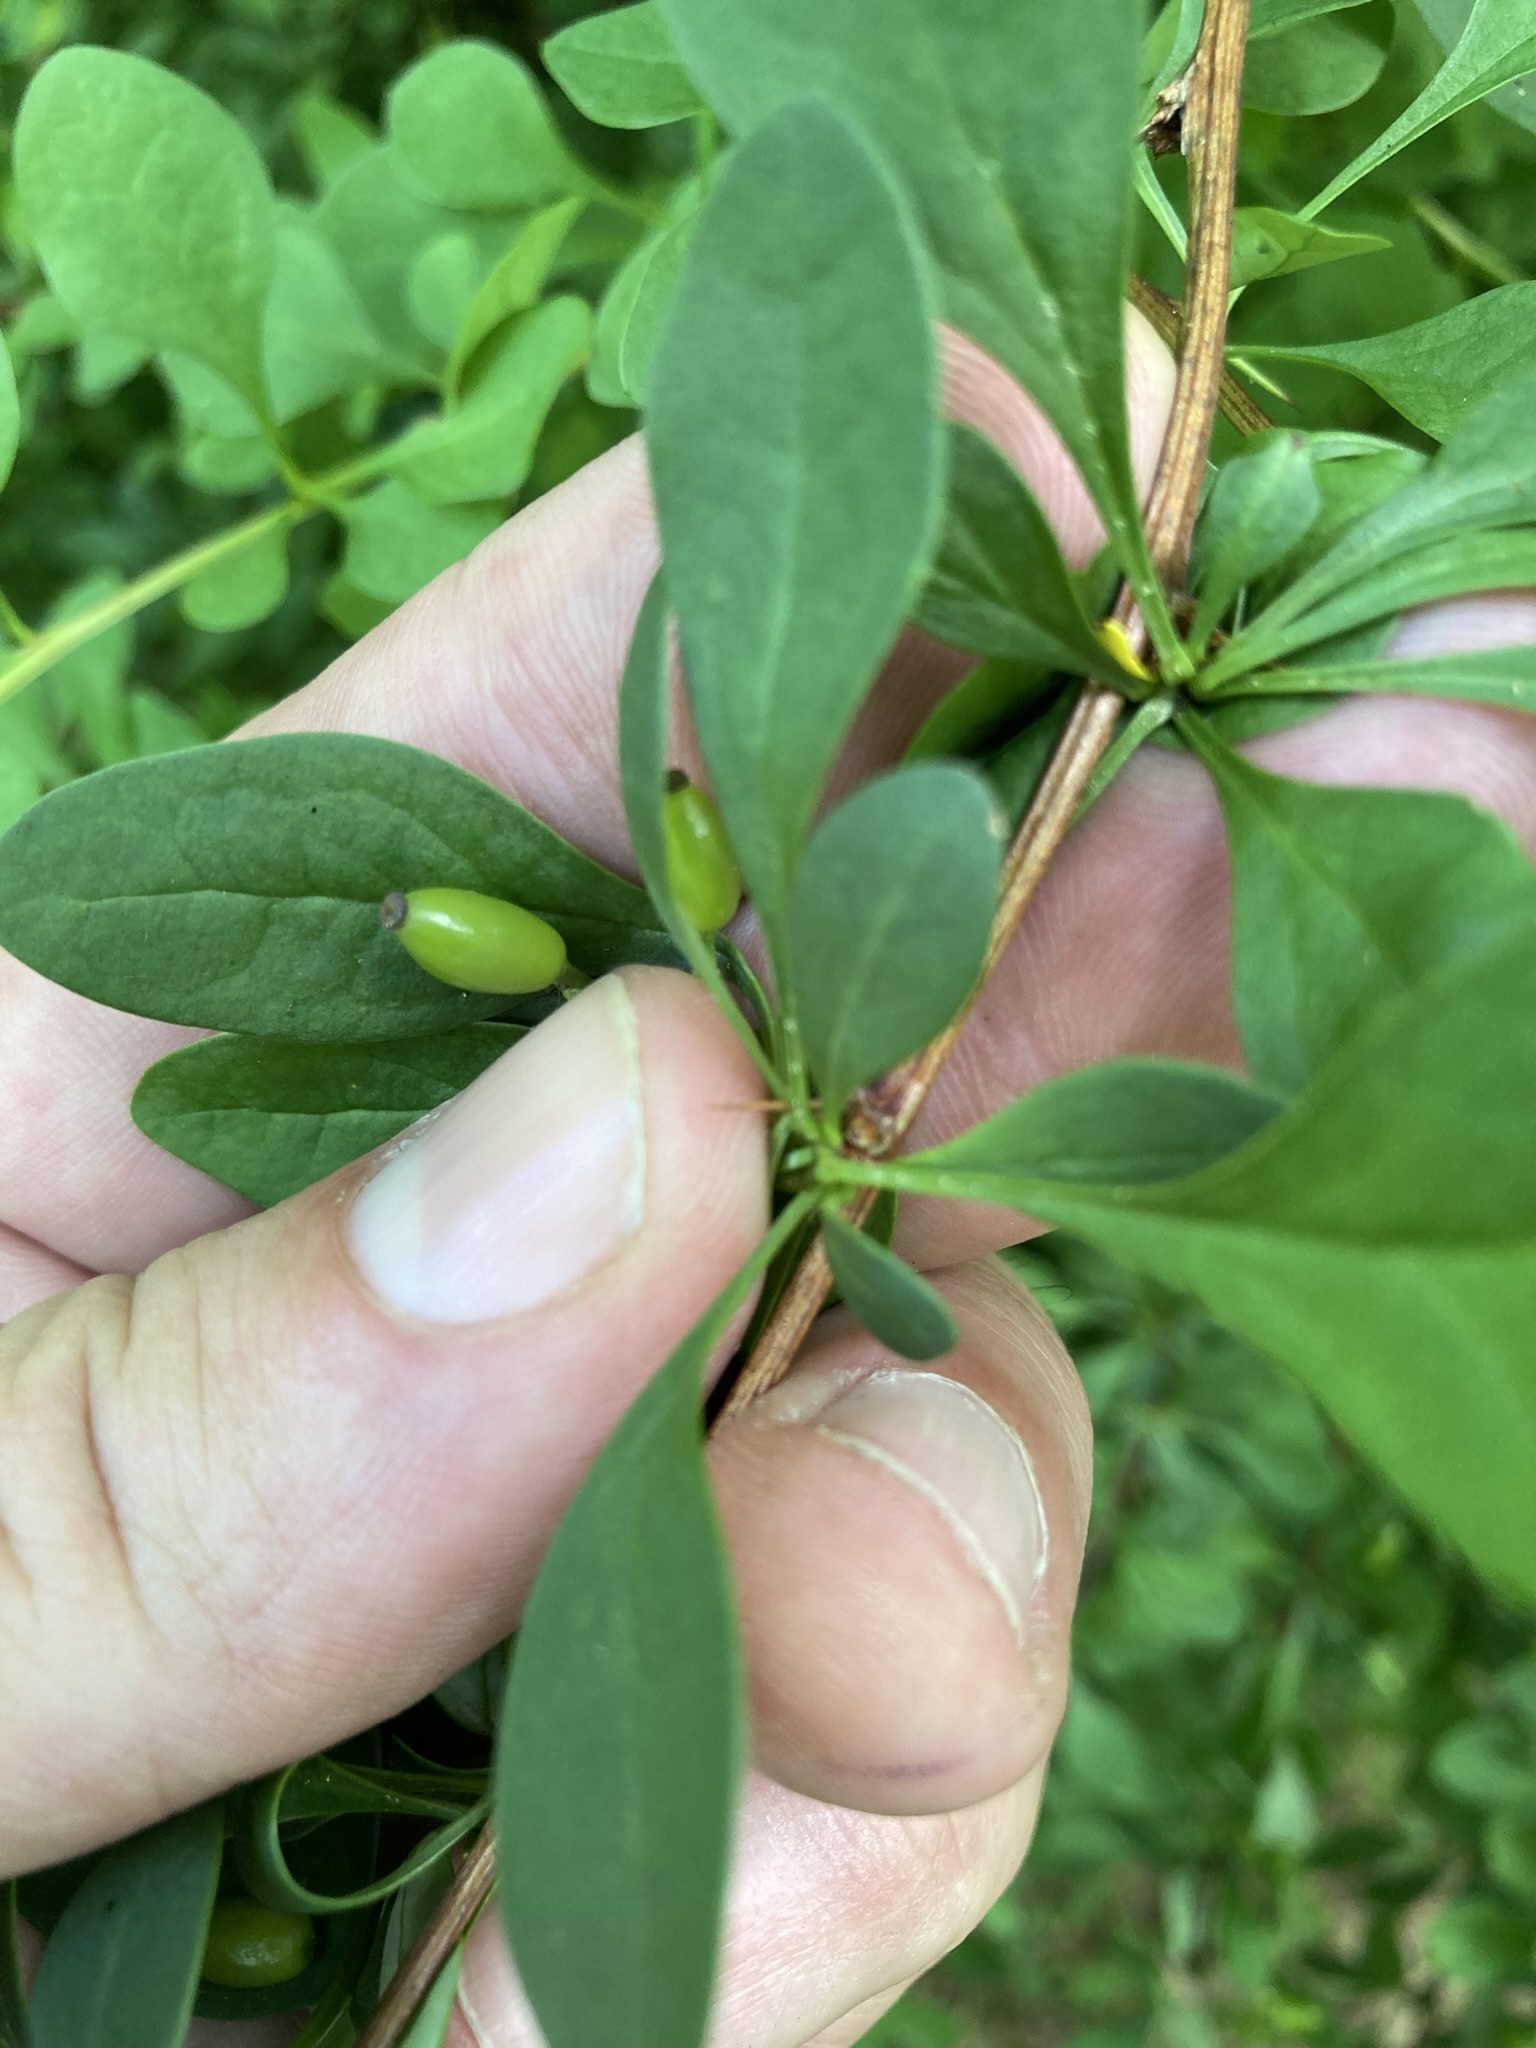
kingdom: Plantae
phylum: Tracheophyta
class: Magnoliopsida
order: Ranunculales
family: Berberidaceae
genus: Berberis
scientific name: Berberis ottawensis
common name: Ottawa barberry
